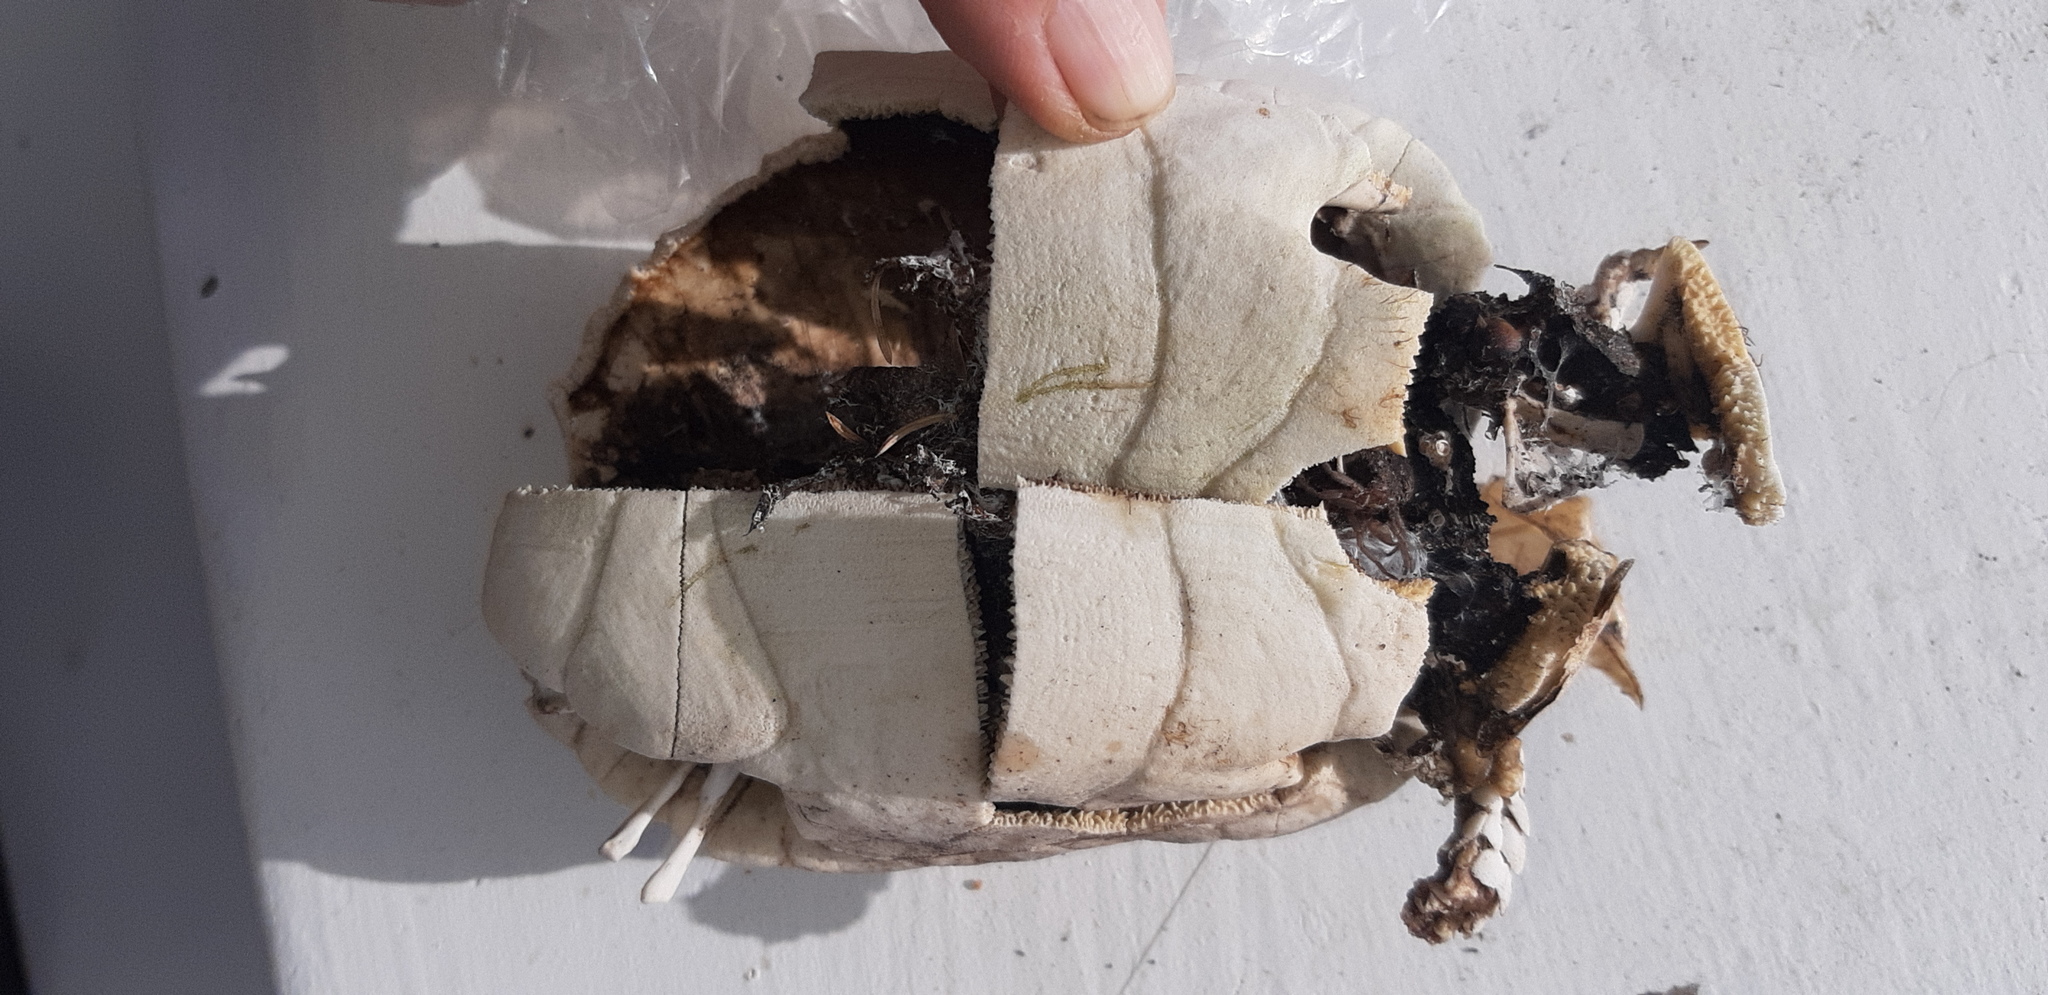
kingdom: Animalia
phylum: Chordata
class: Testudines
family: Testudinidae
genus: Chersina
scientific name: Chersina angulata
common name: South african bowsprit tortoise
